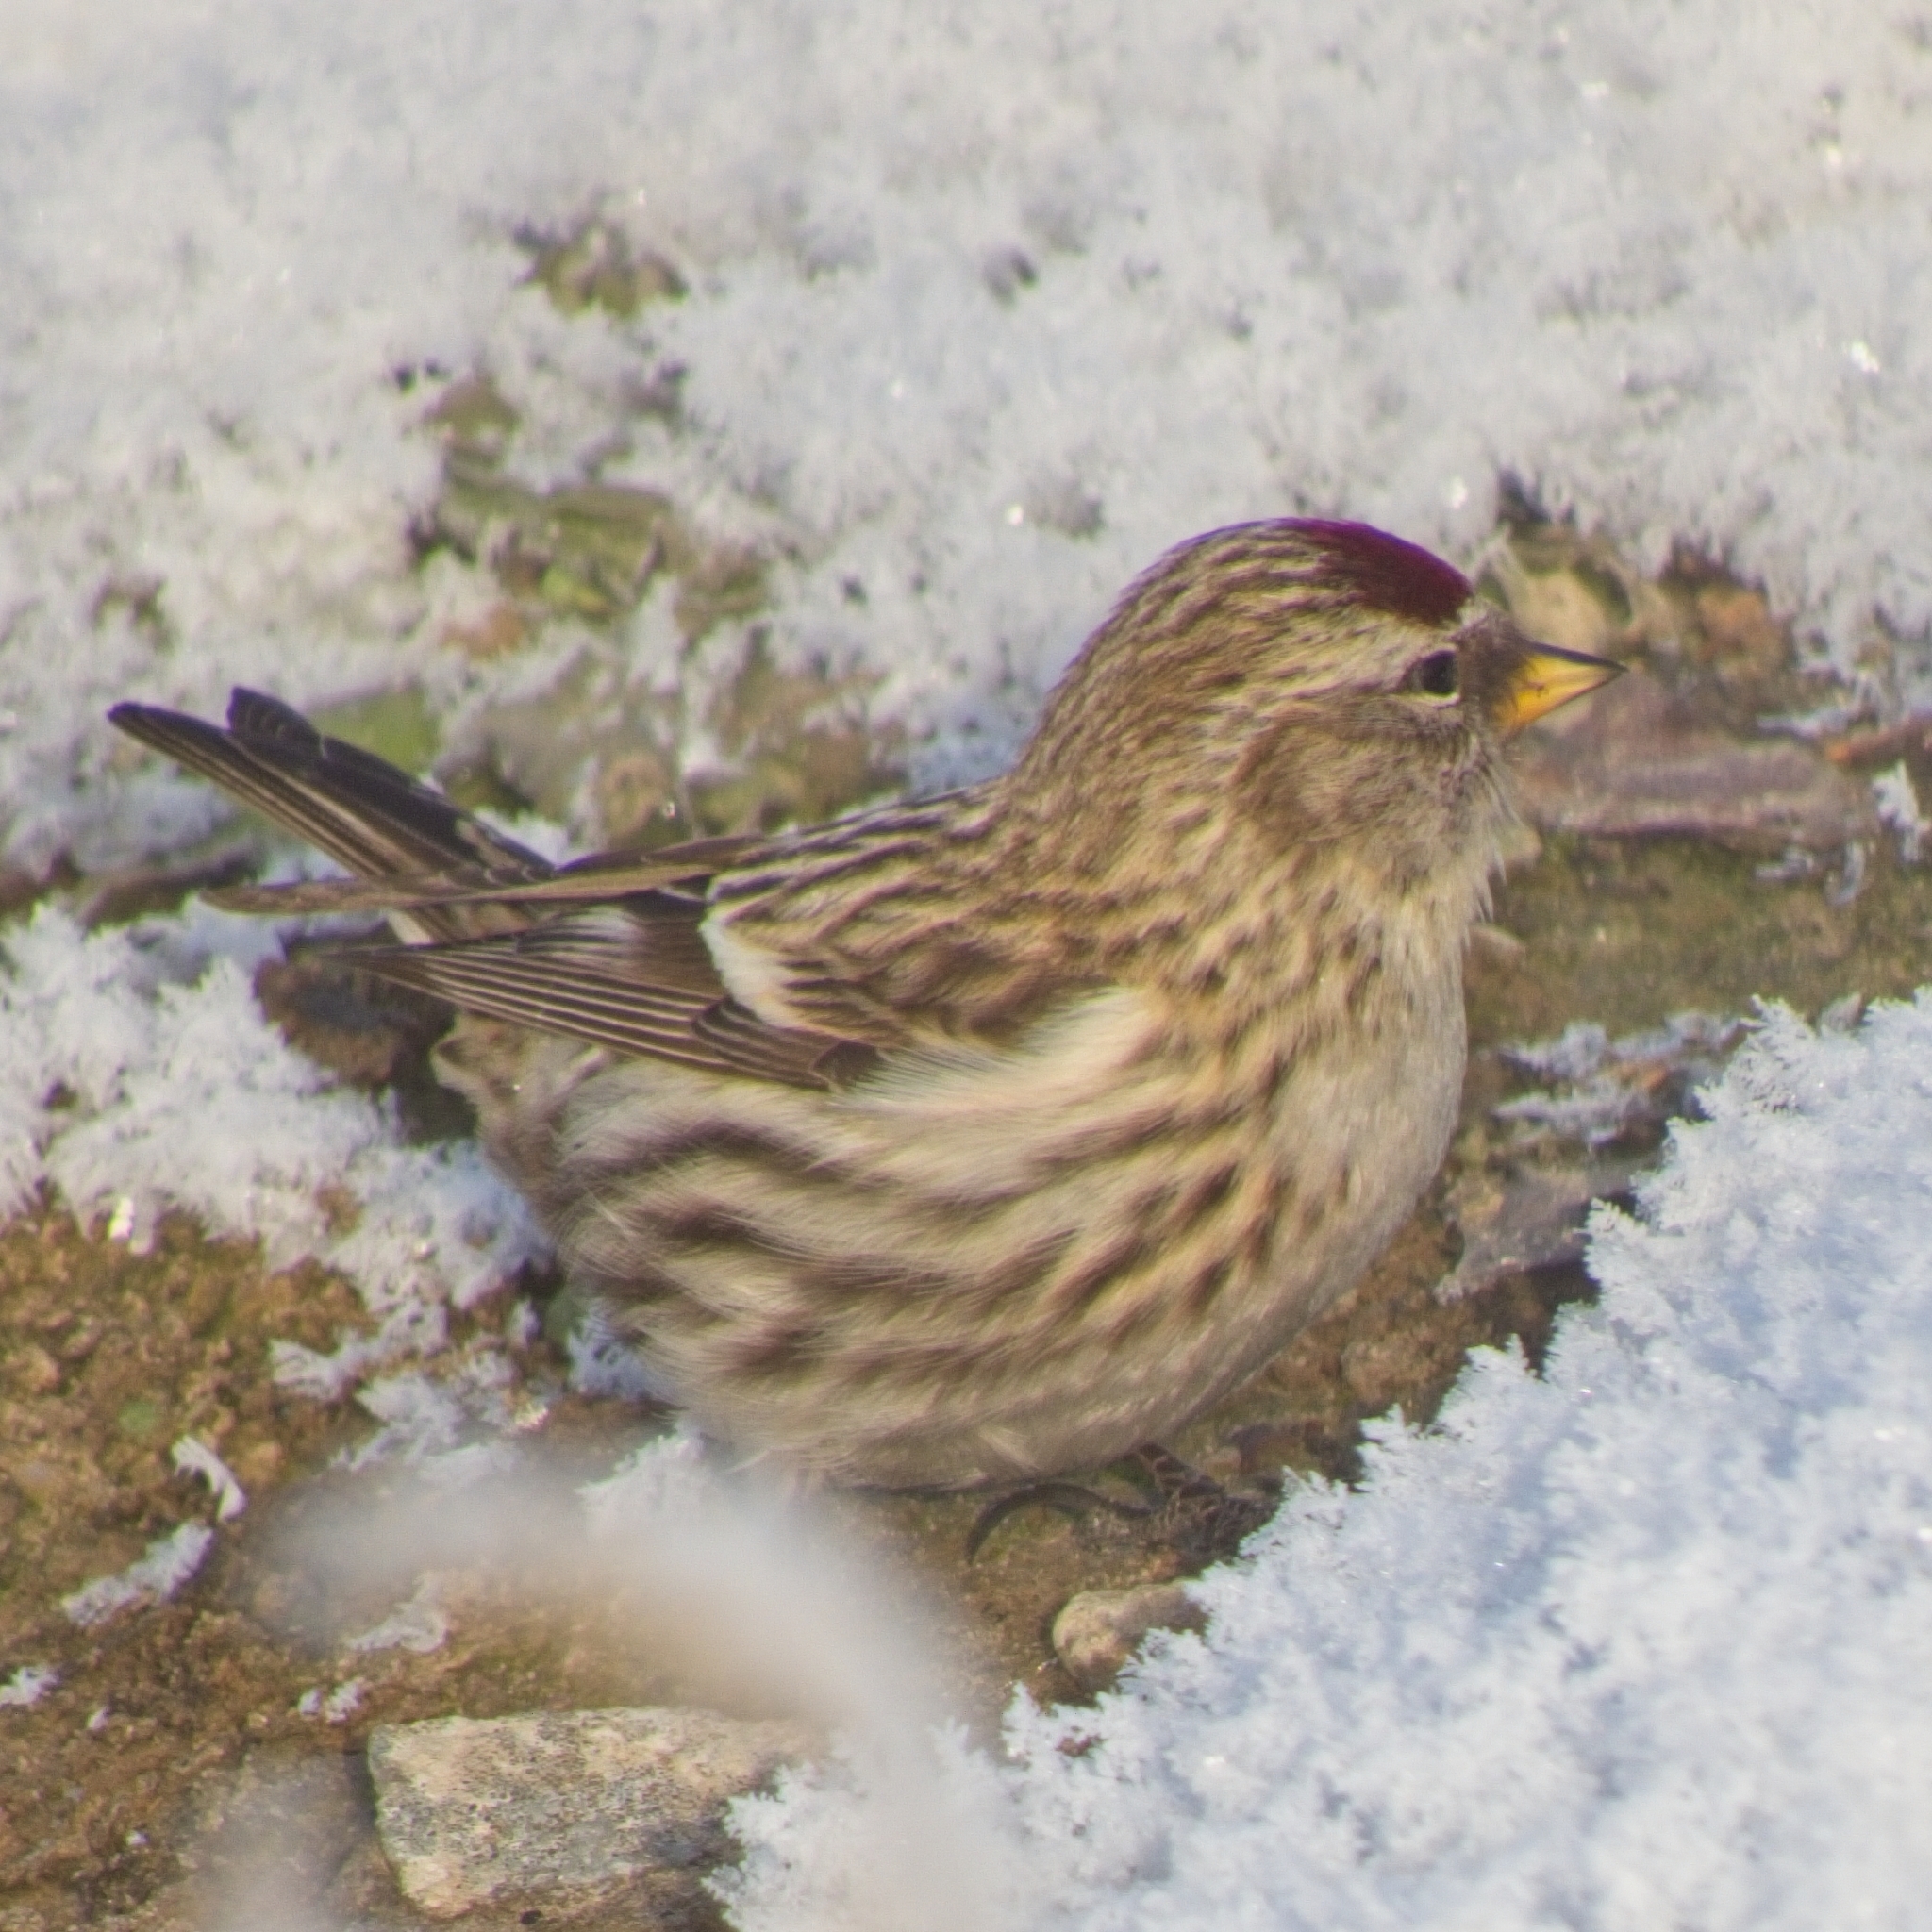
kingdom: Animalia
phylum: Chordata
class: Aves
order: Passeriformes
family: Fringillidae
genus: Acanthis
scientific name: Acanthis flammea
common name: Common redpoll
